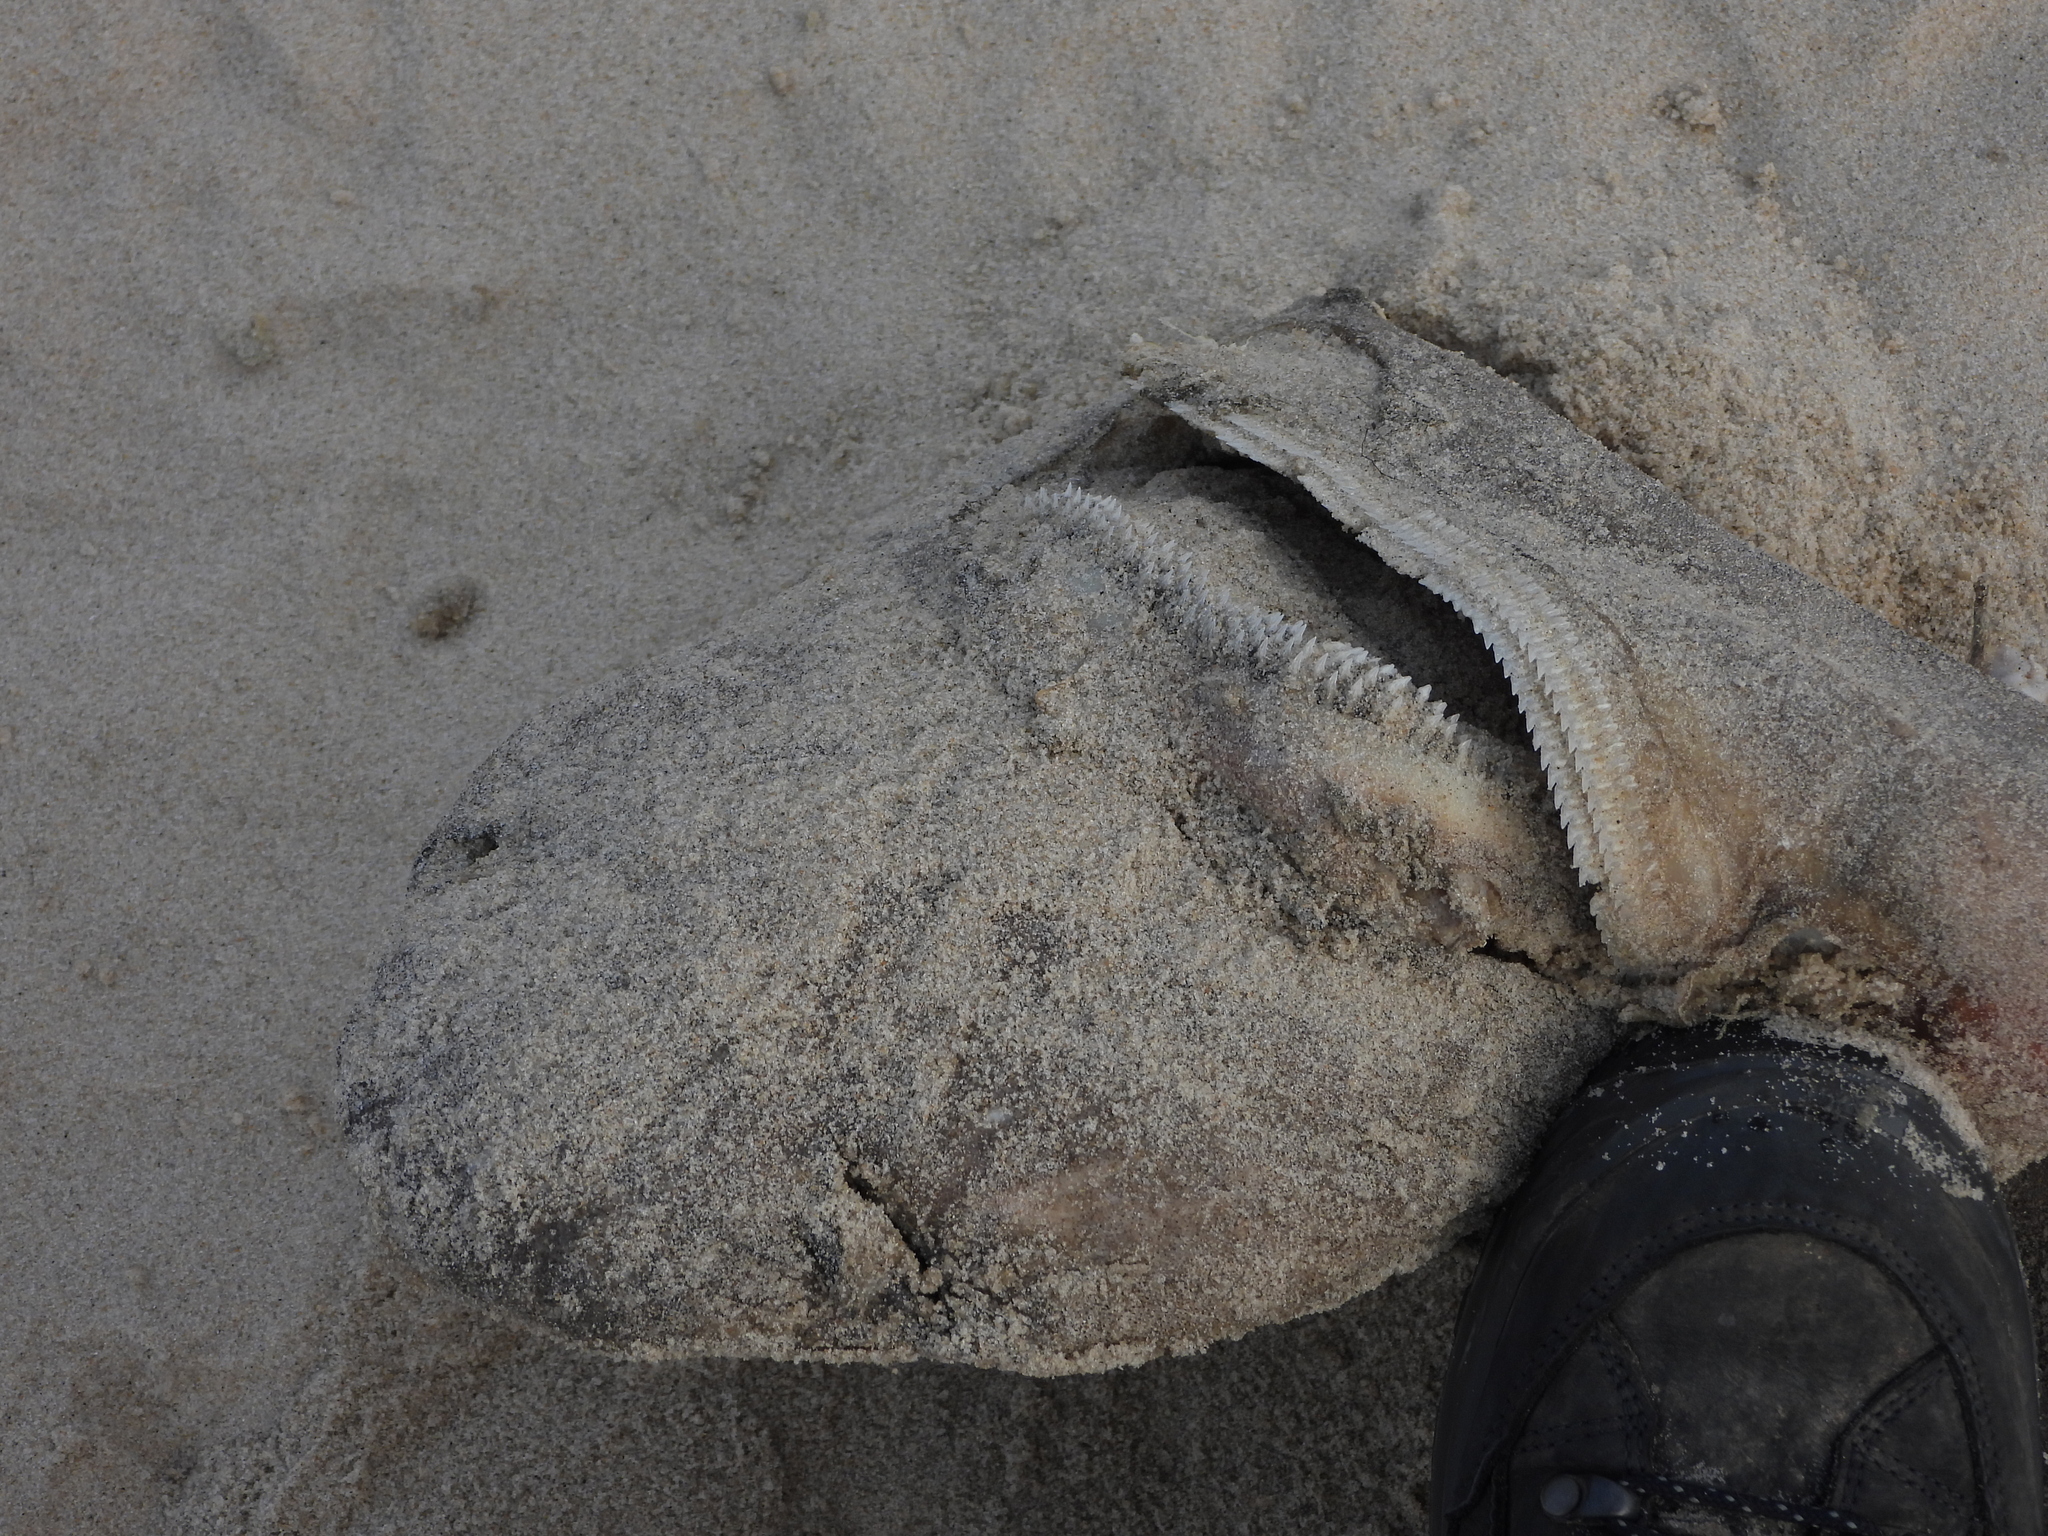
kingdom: Animalia
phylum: Chordata
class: Elasmobranchii
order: Squaliformes
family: Somniosidae
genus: Somniosus
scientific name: Somniosus microcephalus
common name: Greenland shark
